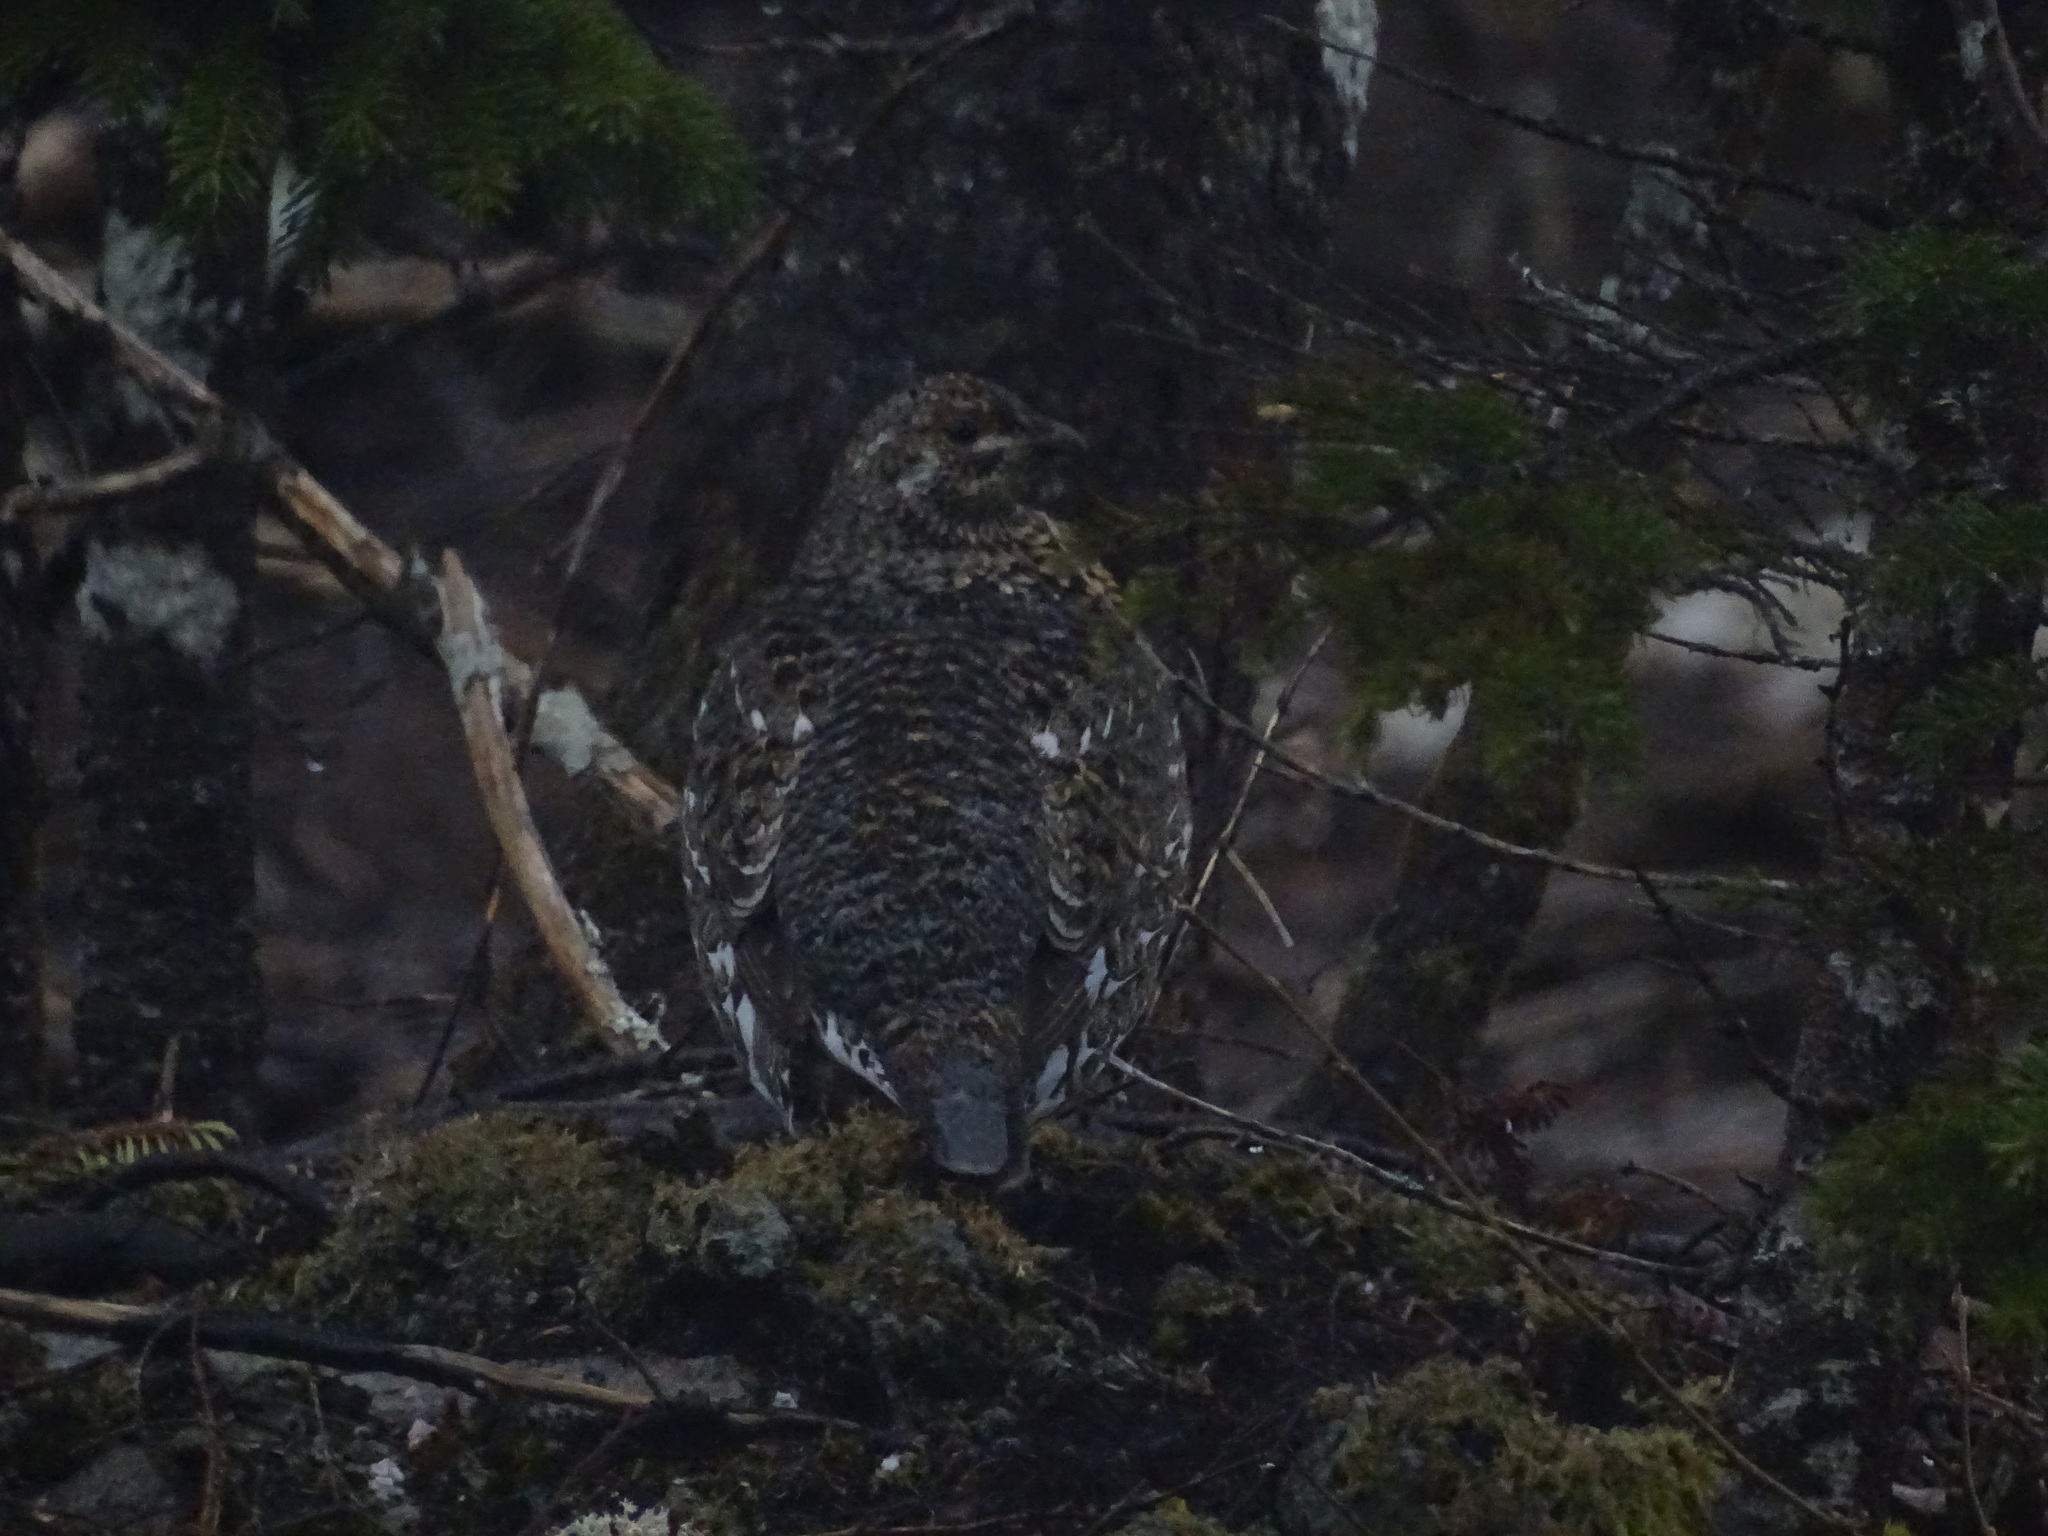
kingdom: Animalia
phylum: Chordata
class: Aves
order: Galliformes
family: Phasianidae
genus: Canachites
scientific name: Canachites canadensis
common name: Spruce grouse
